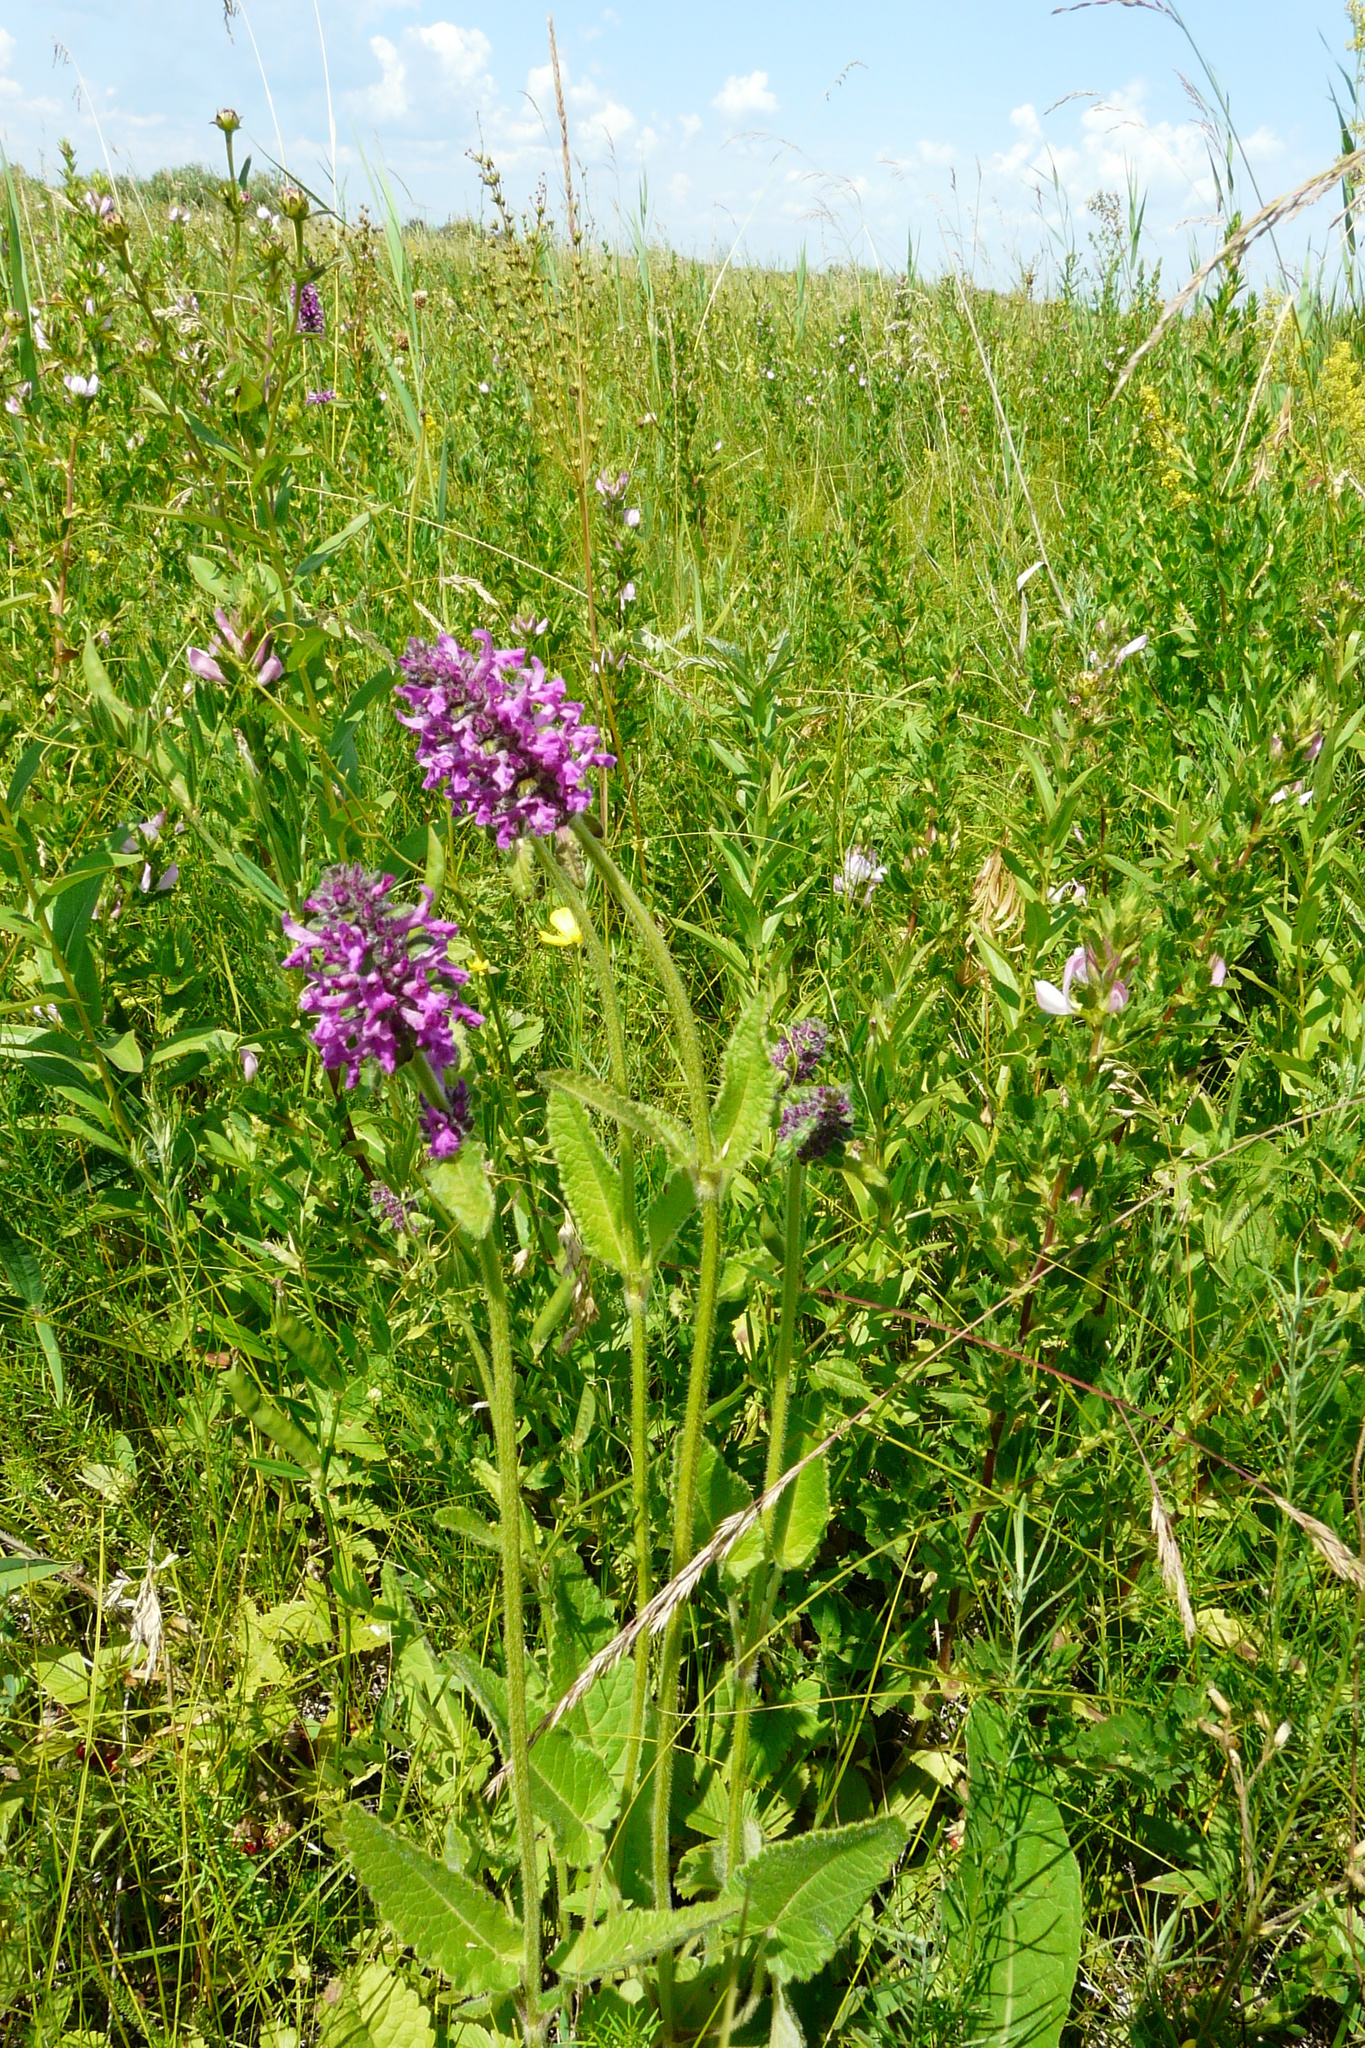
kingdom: Plantae
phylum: Tracheophyta
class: Magnoliopsida
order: Lamiales
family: Lamiaceae
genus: Betonica
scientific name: Betonica officinalis
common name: Bishop's-wort
